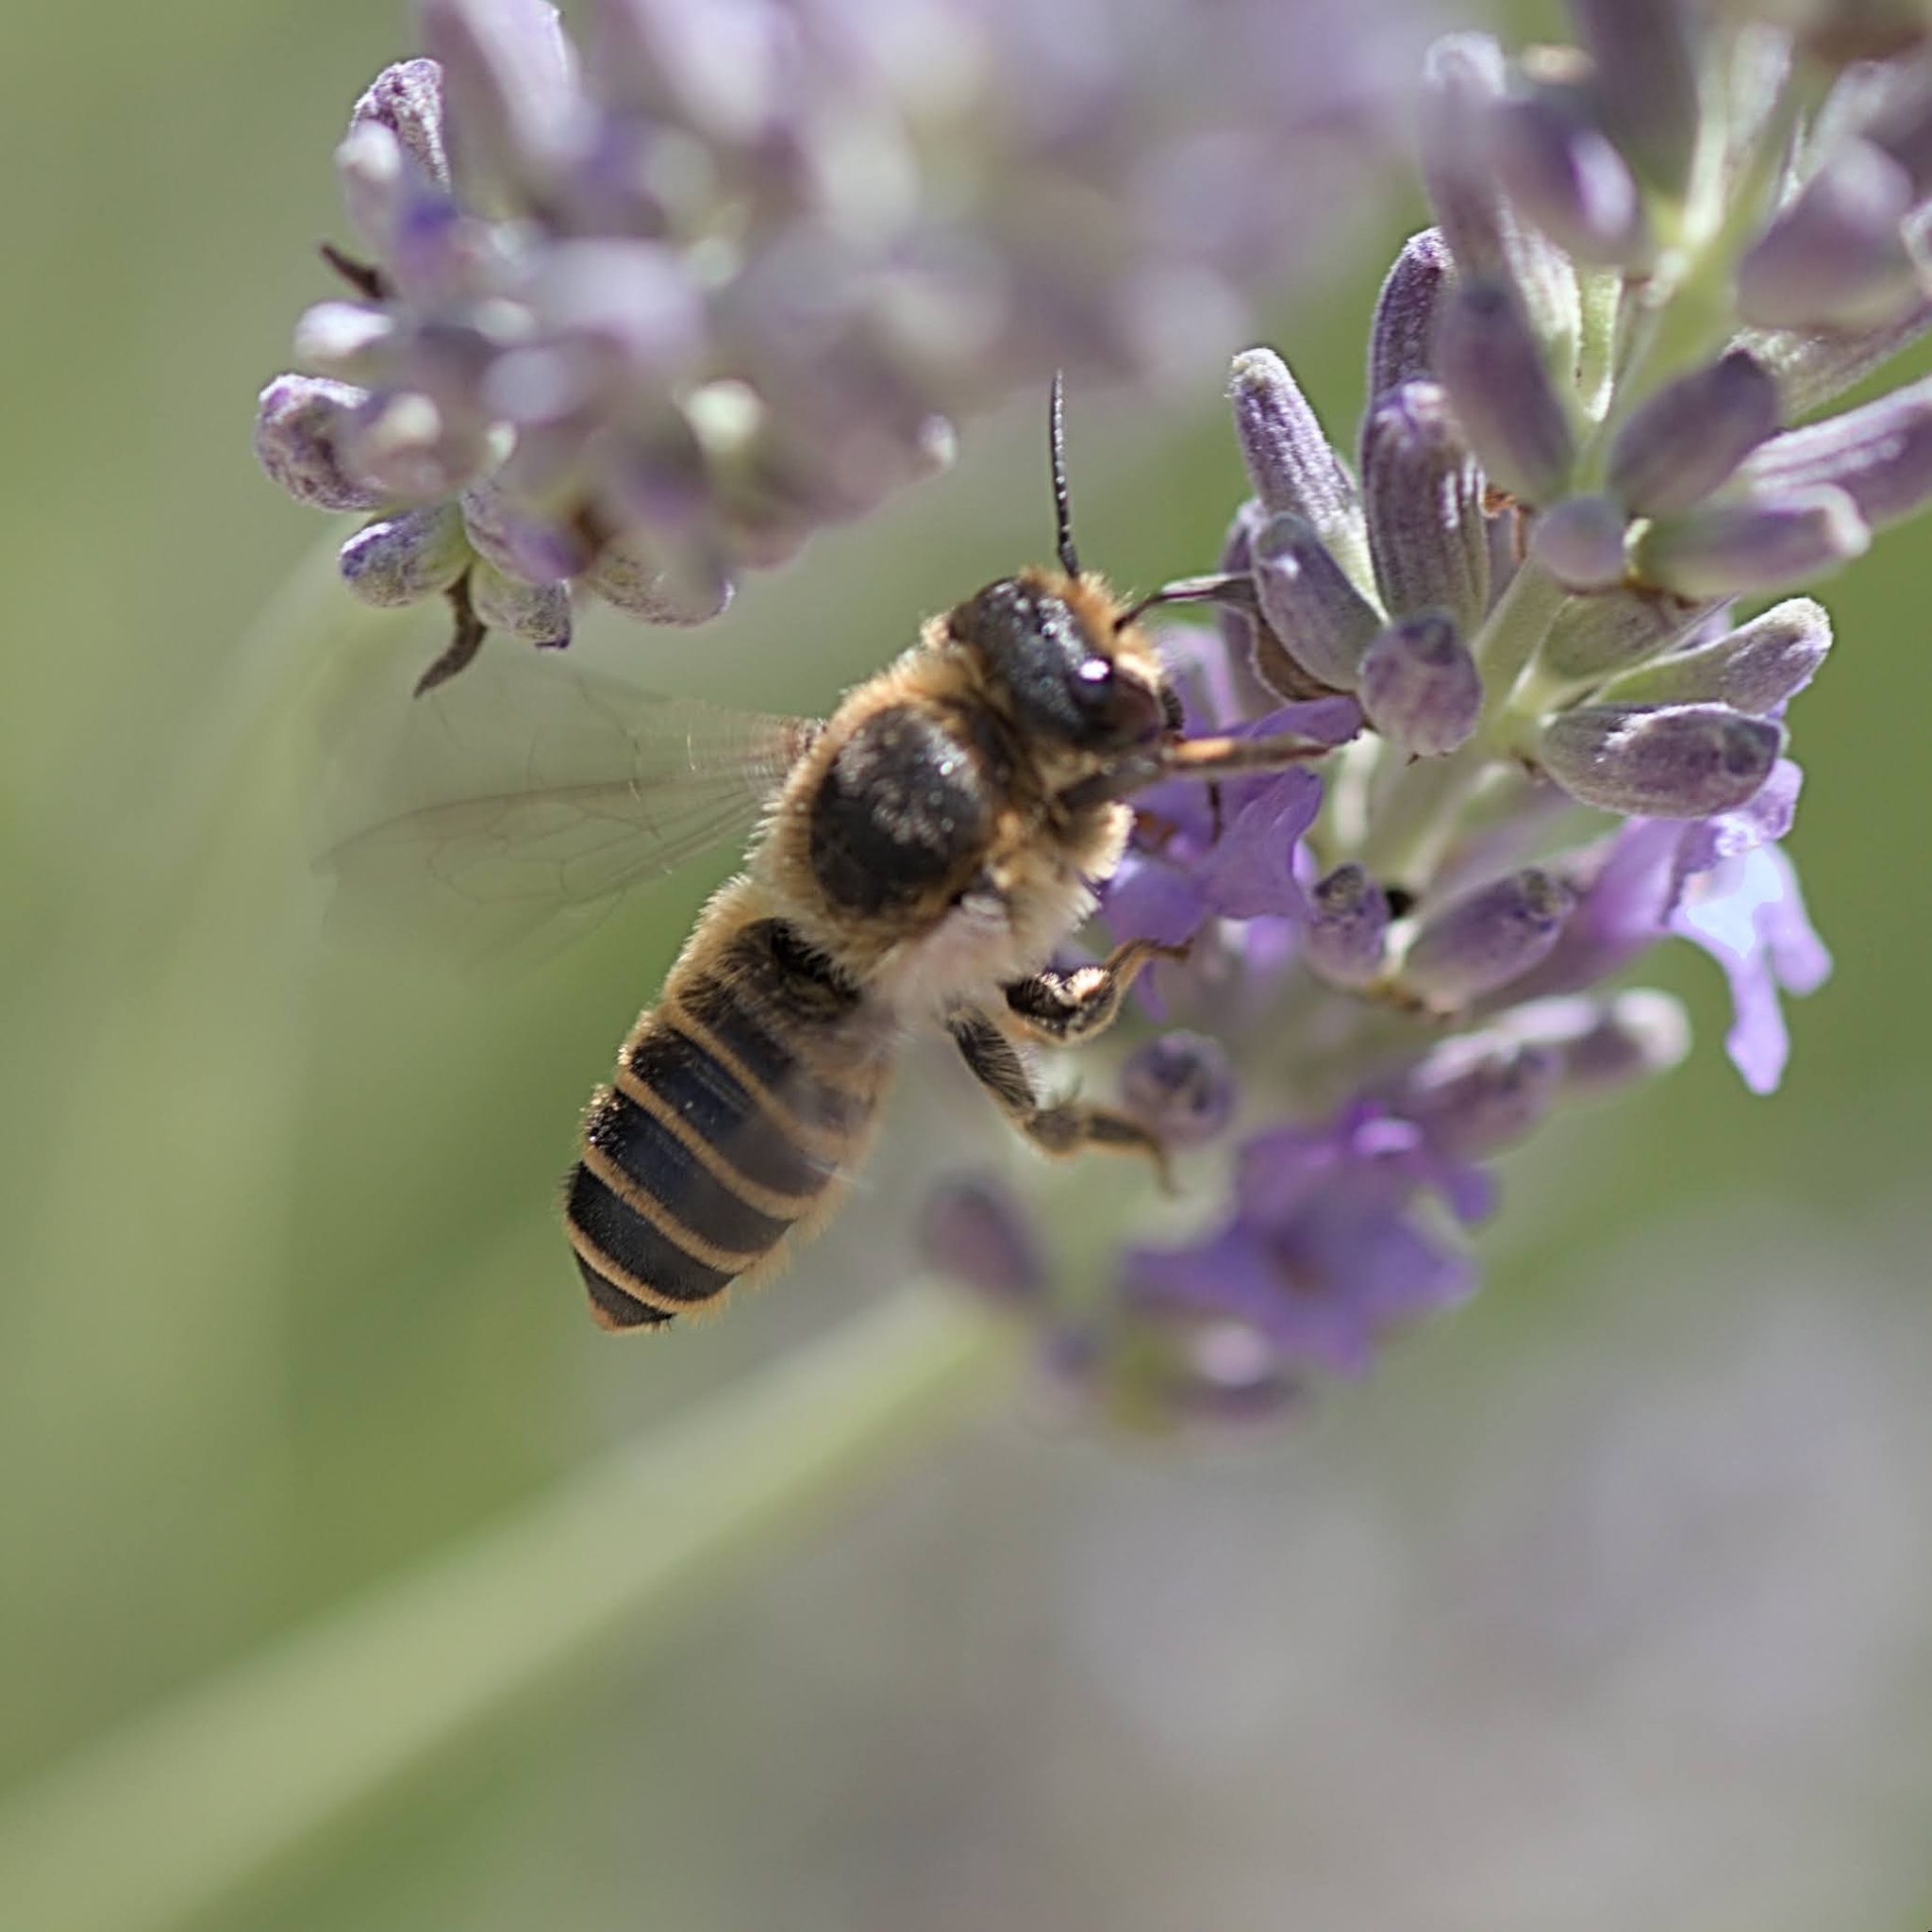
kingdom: Animalia
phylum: Arthropoda
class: Insecta
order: Hymenoptera
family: Megachilidae
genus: Megachile
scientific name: Megachile ericetorum
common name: Leafcutter bee
